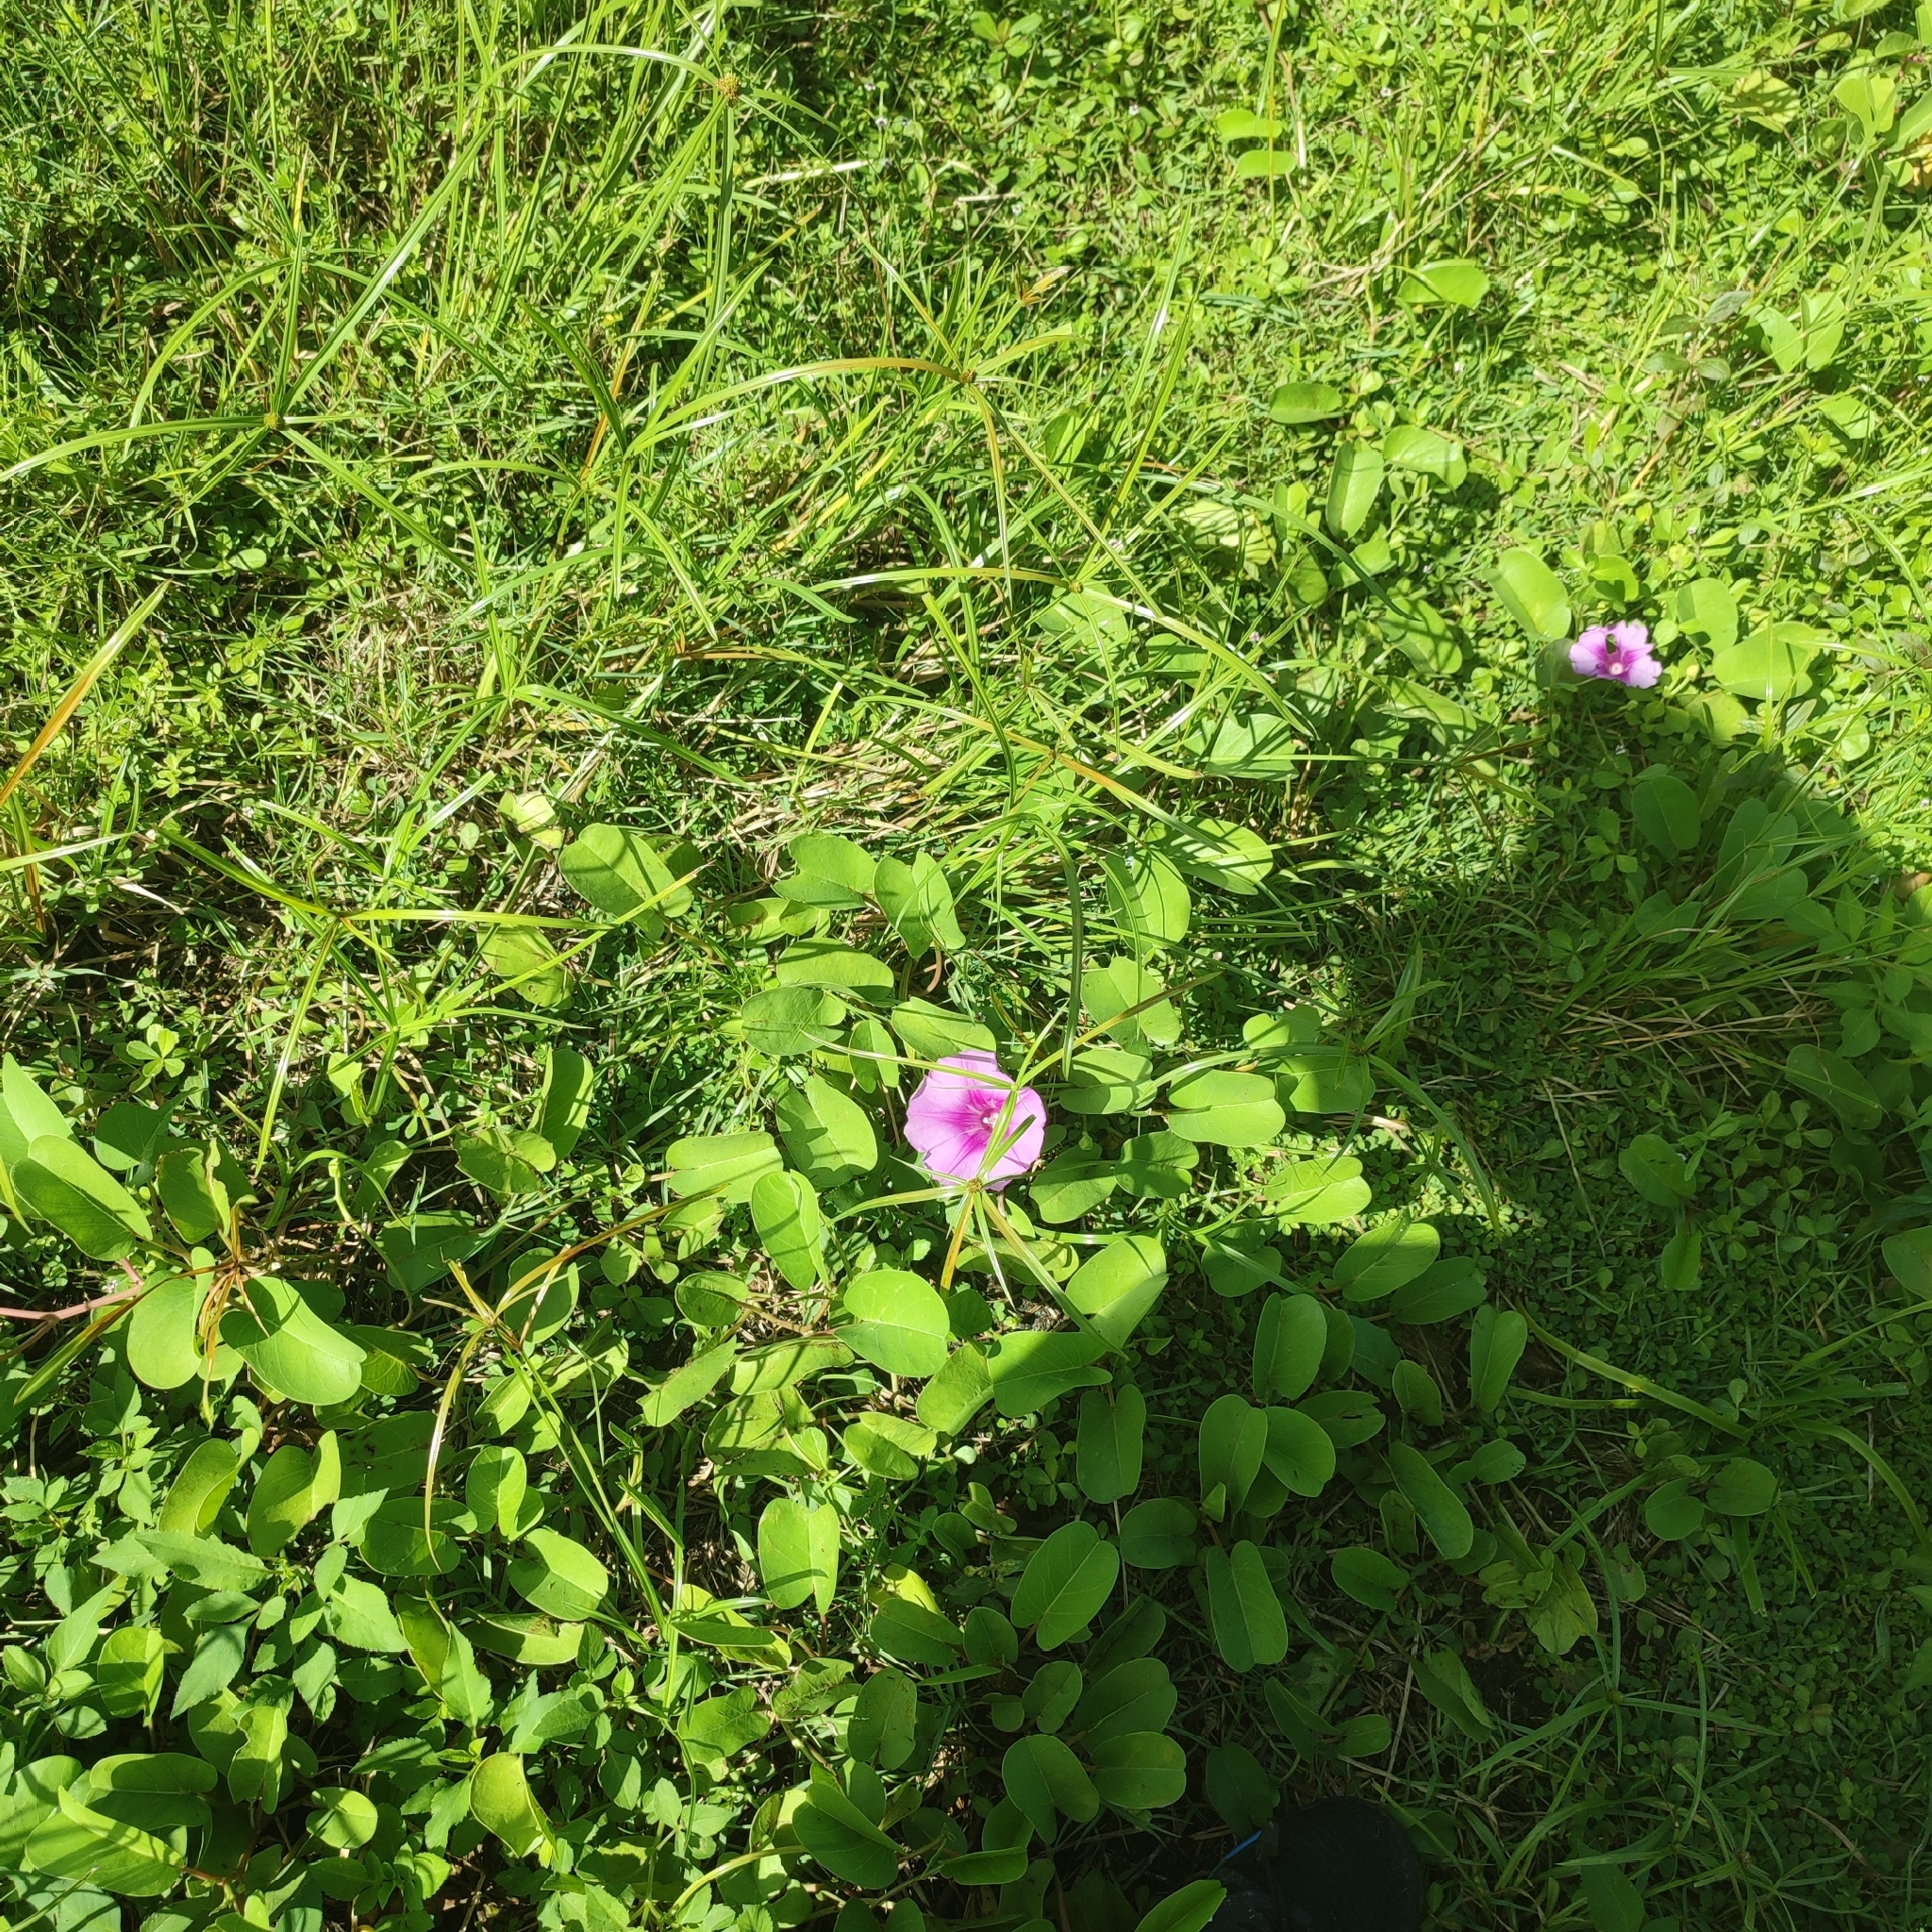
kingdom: Plantae
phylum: Tracheophyta
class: Magnoliopsida
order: Solanales
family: Convolvulaceae
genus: Ipomoea
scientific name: Ipomoea pes-caprae
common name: Beach morning glory
